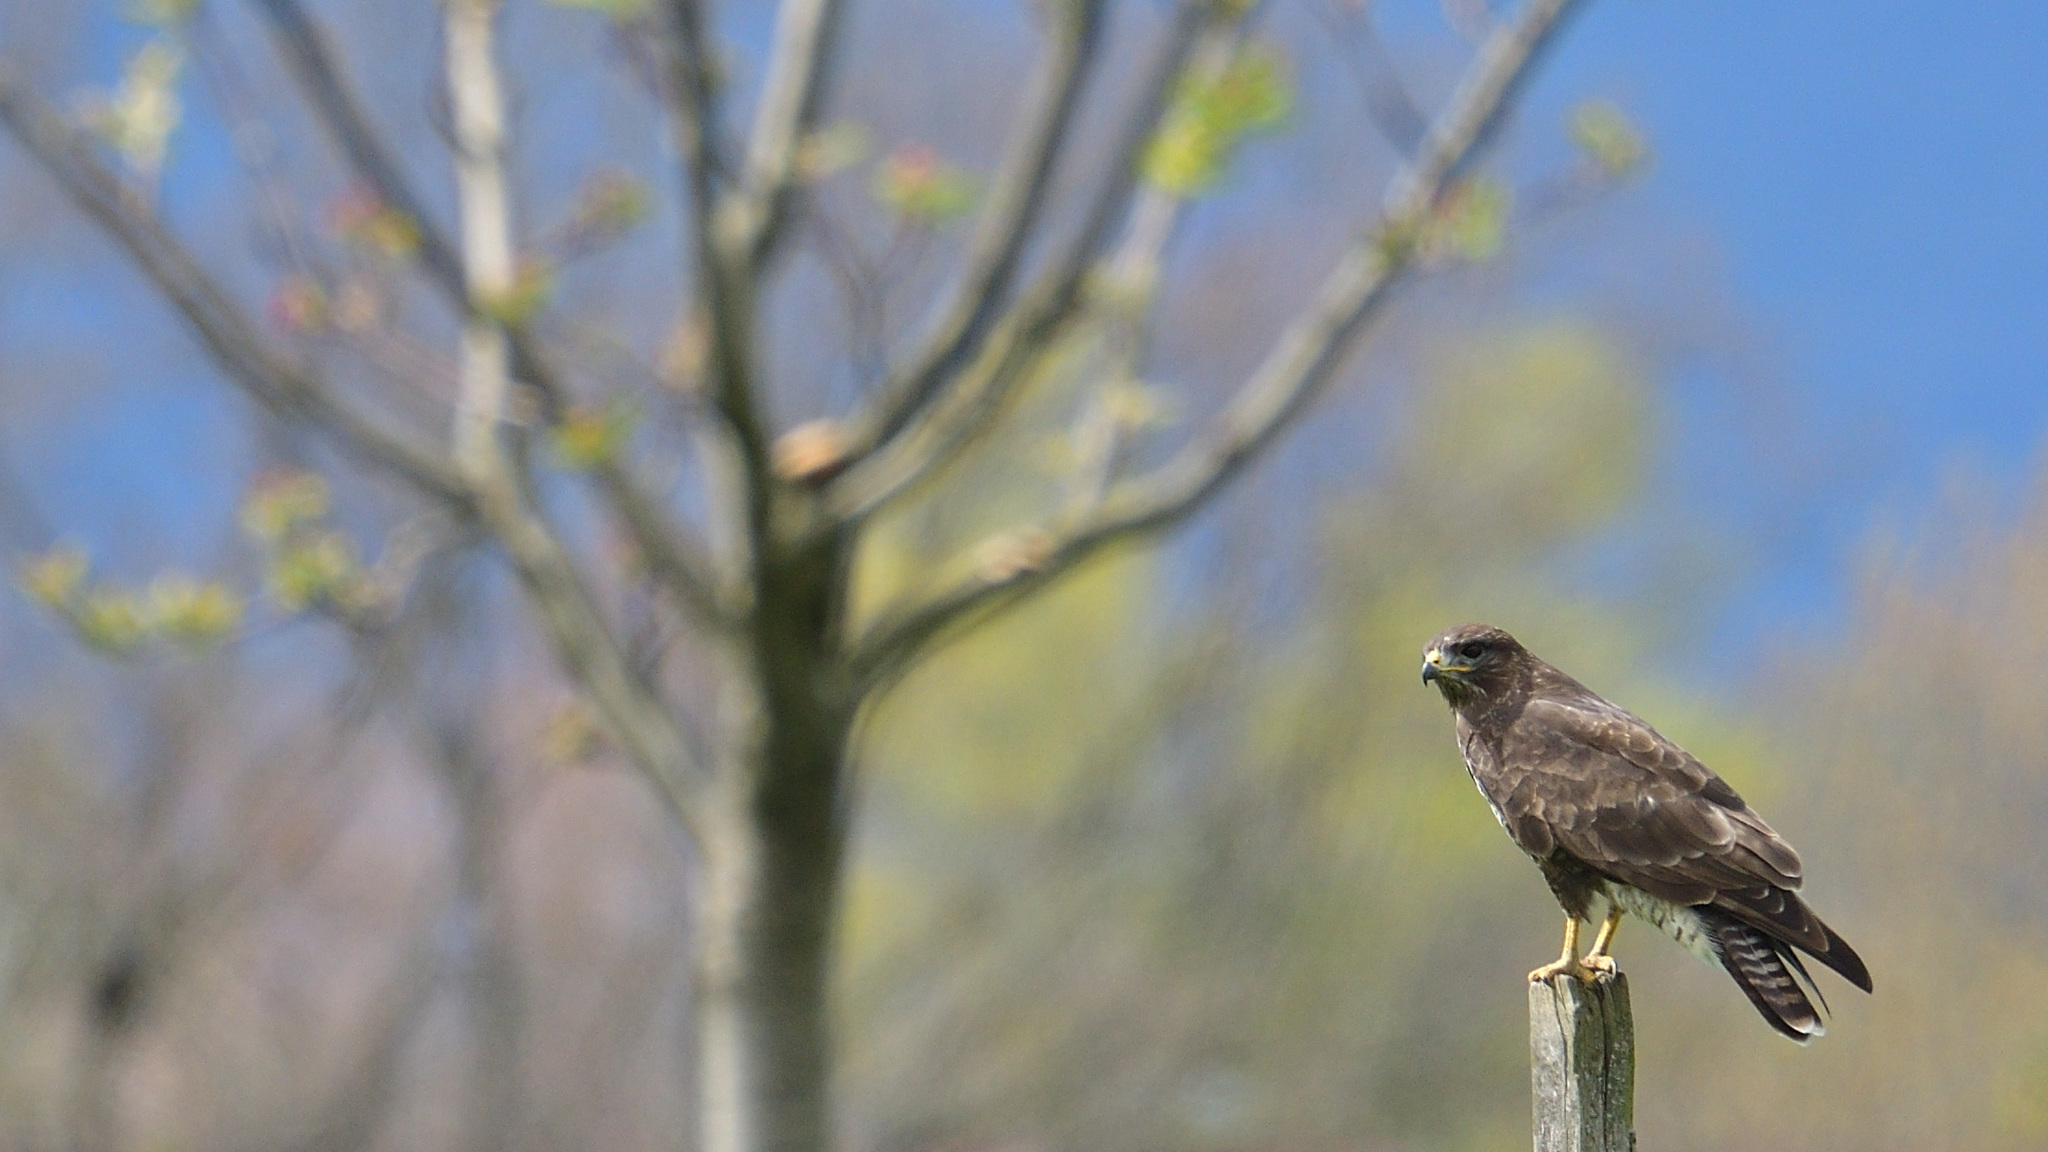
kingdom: Animalia
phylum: Chordata
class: Aves
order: Accipitriformes
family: Accipitridae
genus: Buteo
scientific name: Buteo buteo
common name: Common buzzard
